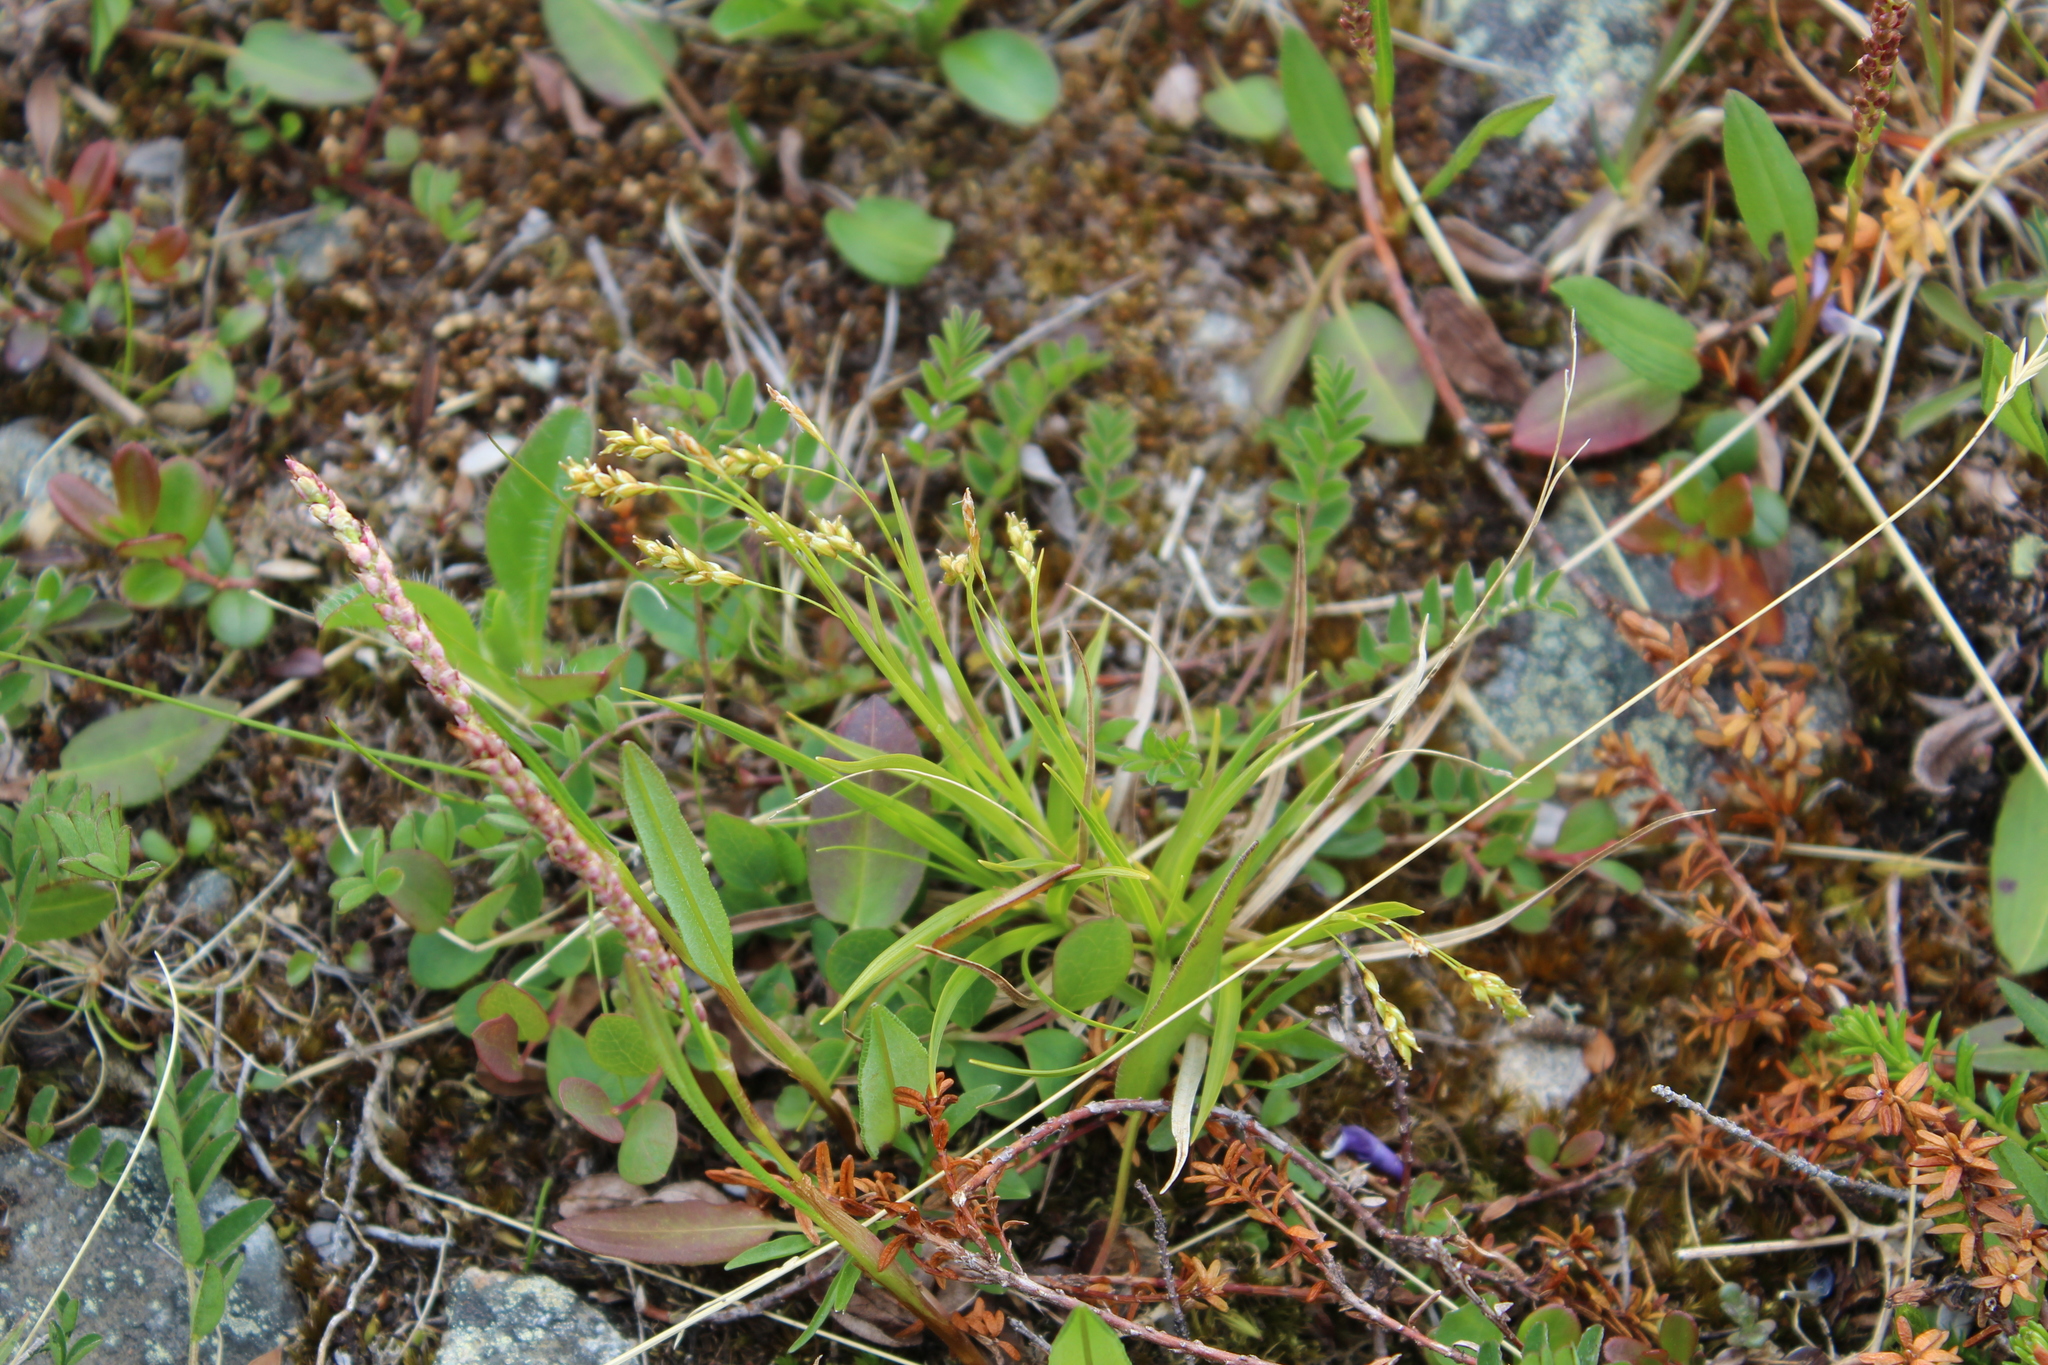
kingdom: Plantae
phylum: Tracheophyta
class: Liliopsida
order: Poales
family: Cyperaceae
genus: Carex
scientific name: Carex capillaris
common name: Hair sedge
